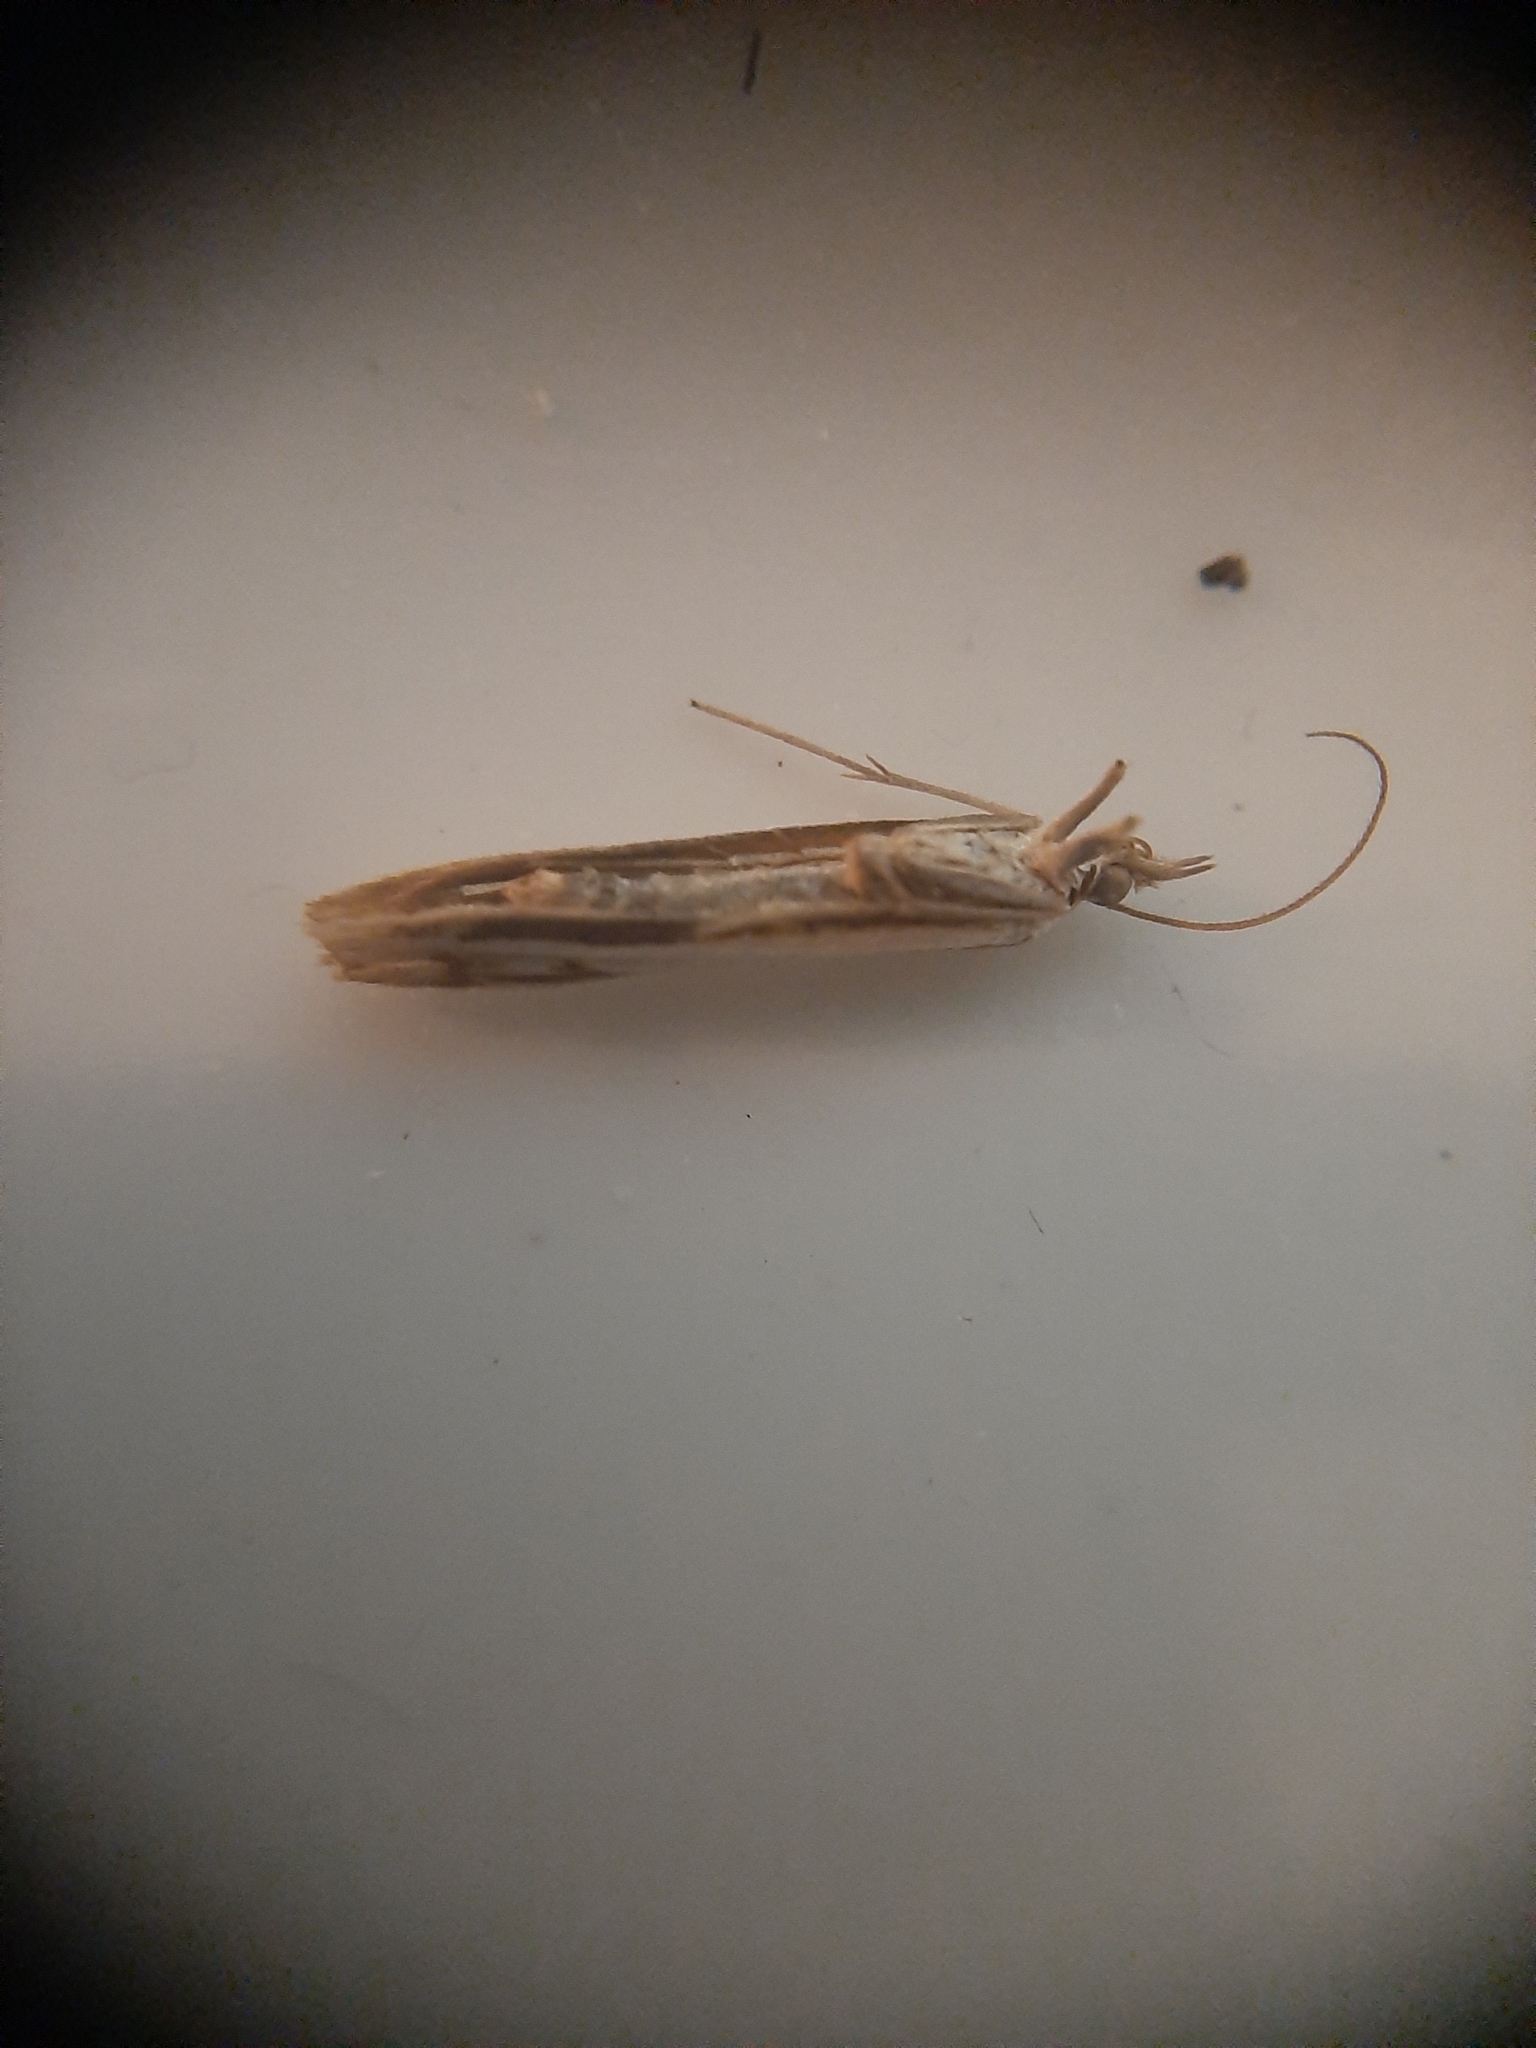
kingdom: Animalia
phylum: Arthropoda
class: Insecta
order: Lepidoptera
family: Crambidae
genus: Orocrambus
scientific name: Orocrambus flexuosellus
